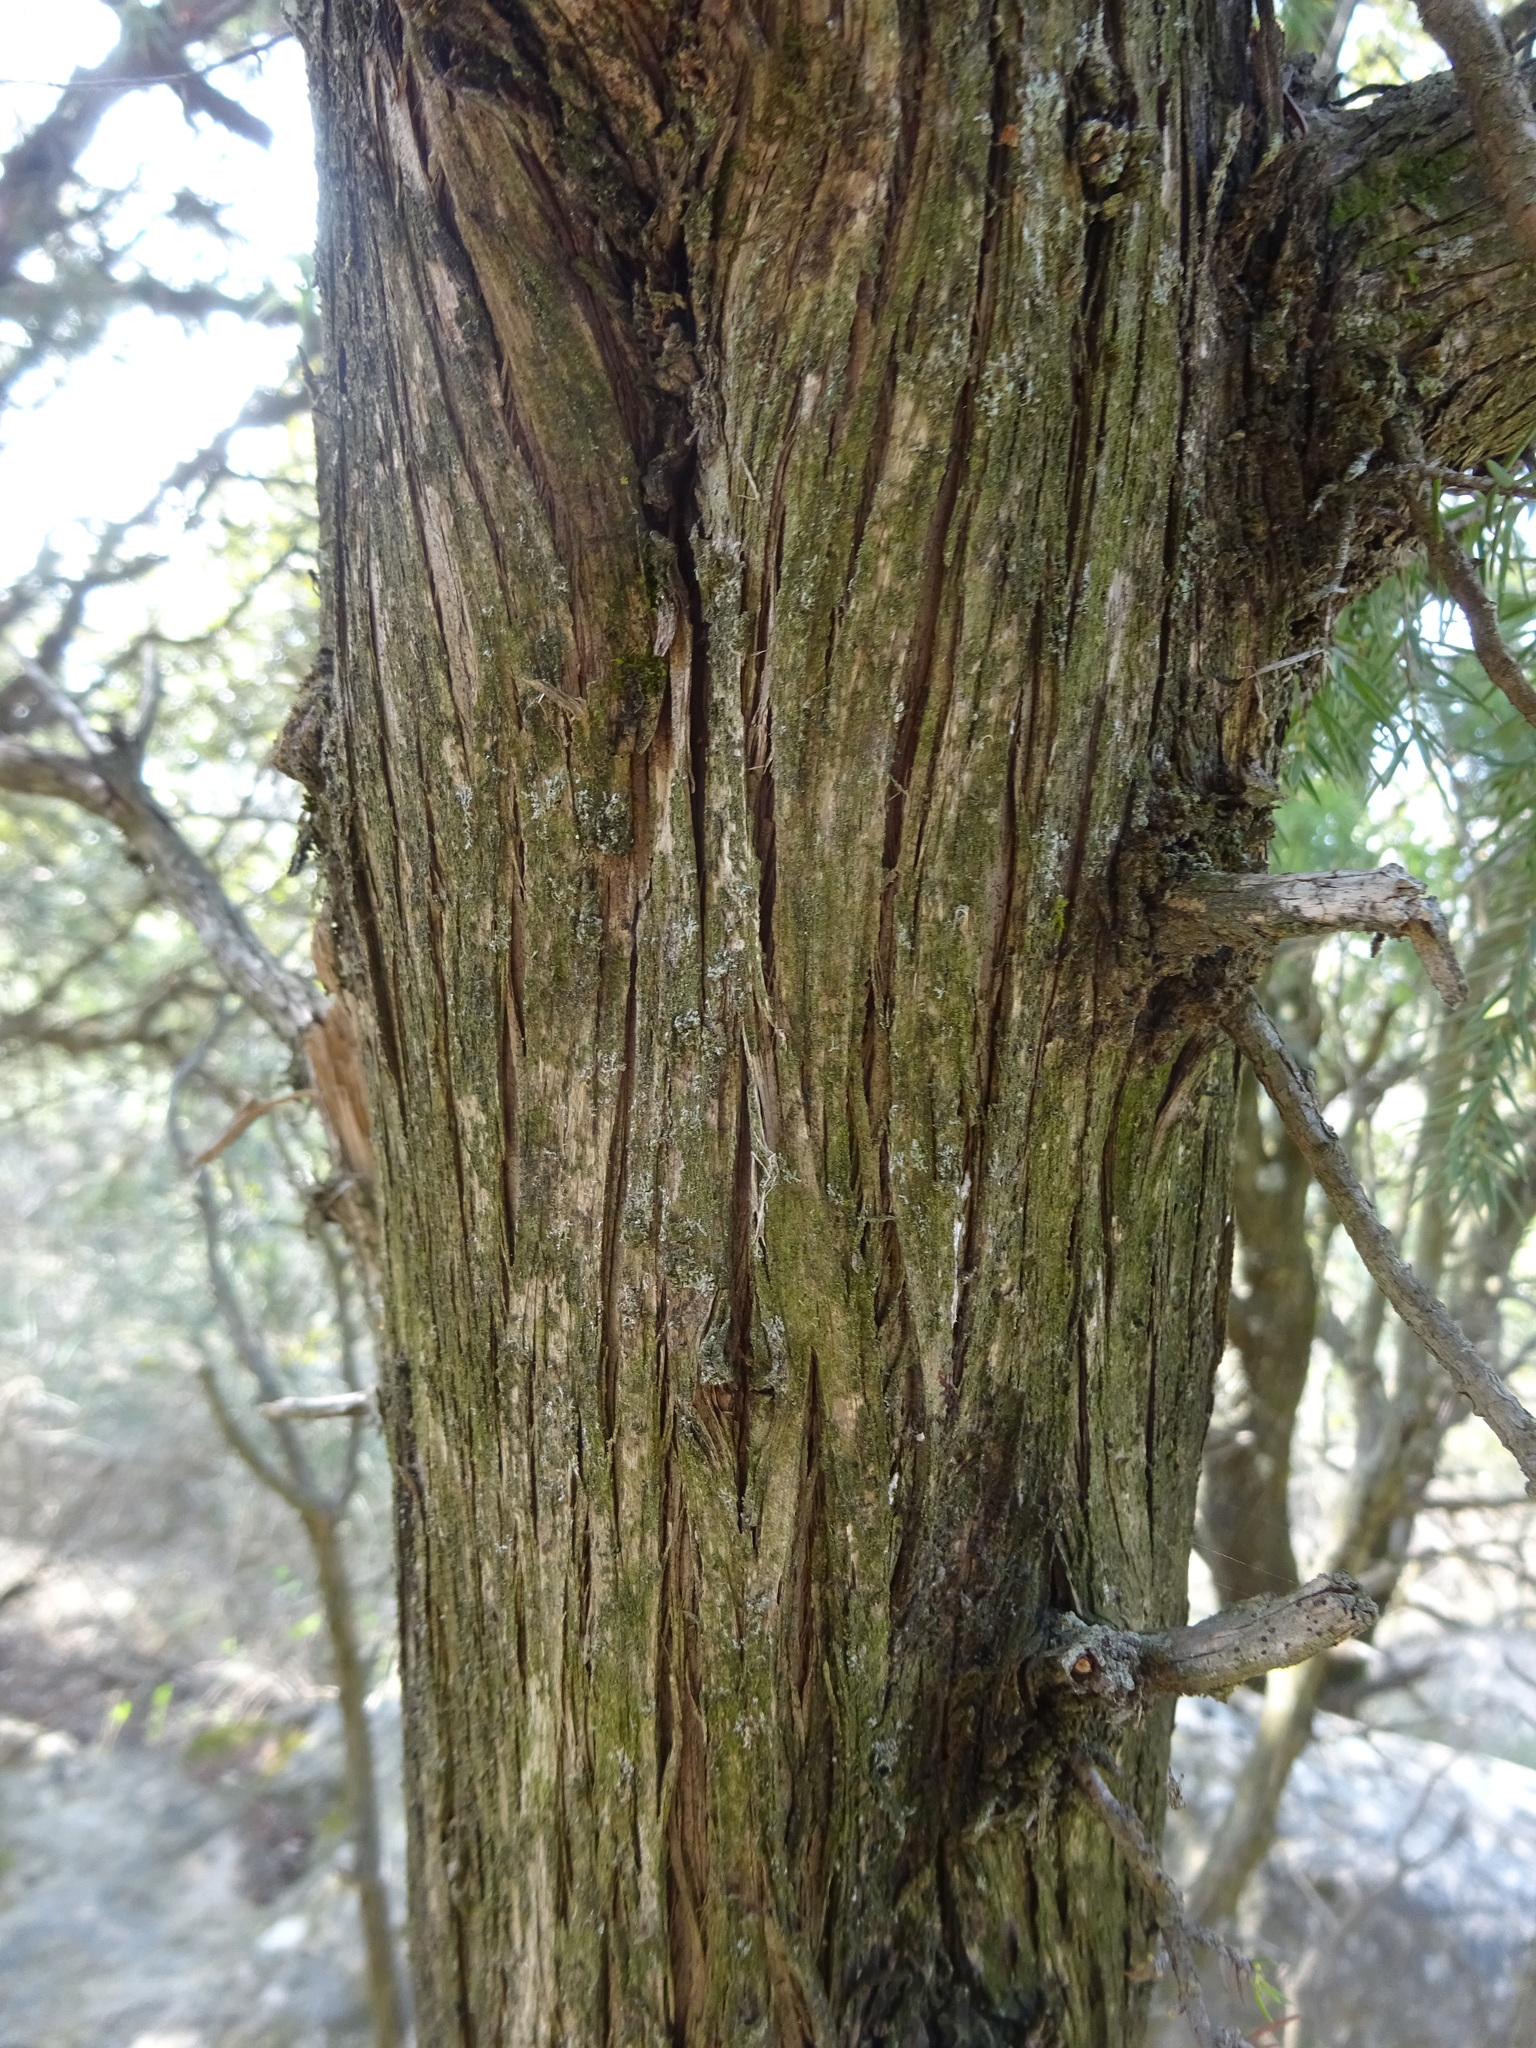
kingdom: Plantae
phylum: Tracheophyta
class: Pinopsida
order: Pinales
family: Cupressaceae
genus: Juniperus
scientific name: Juniperus oxycedrus
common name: Prickly juniper
